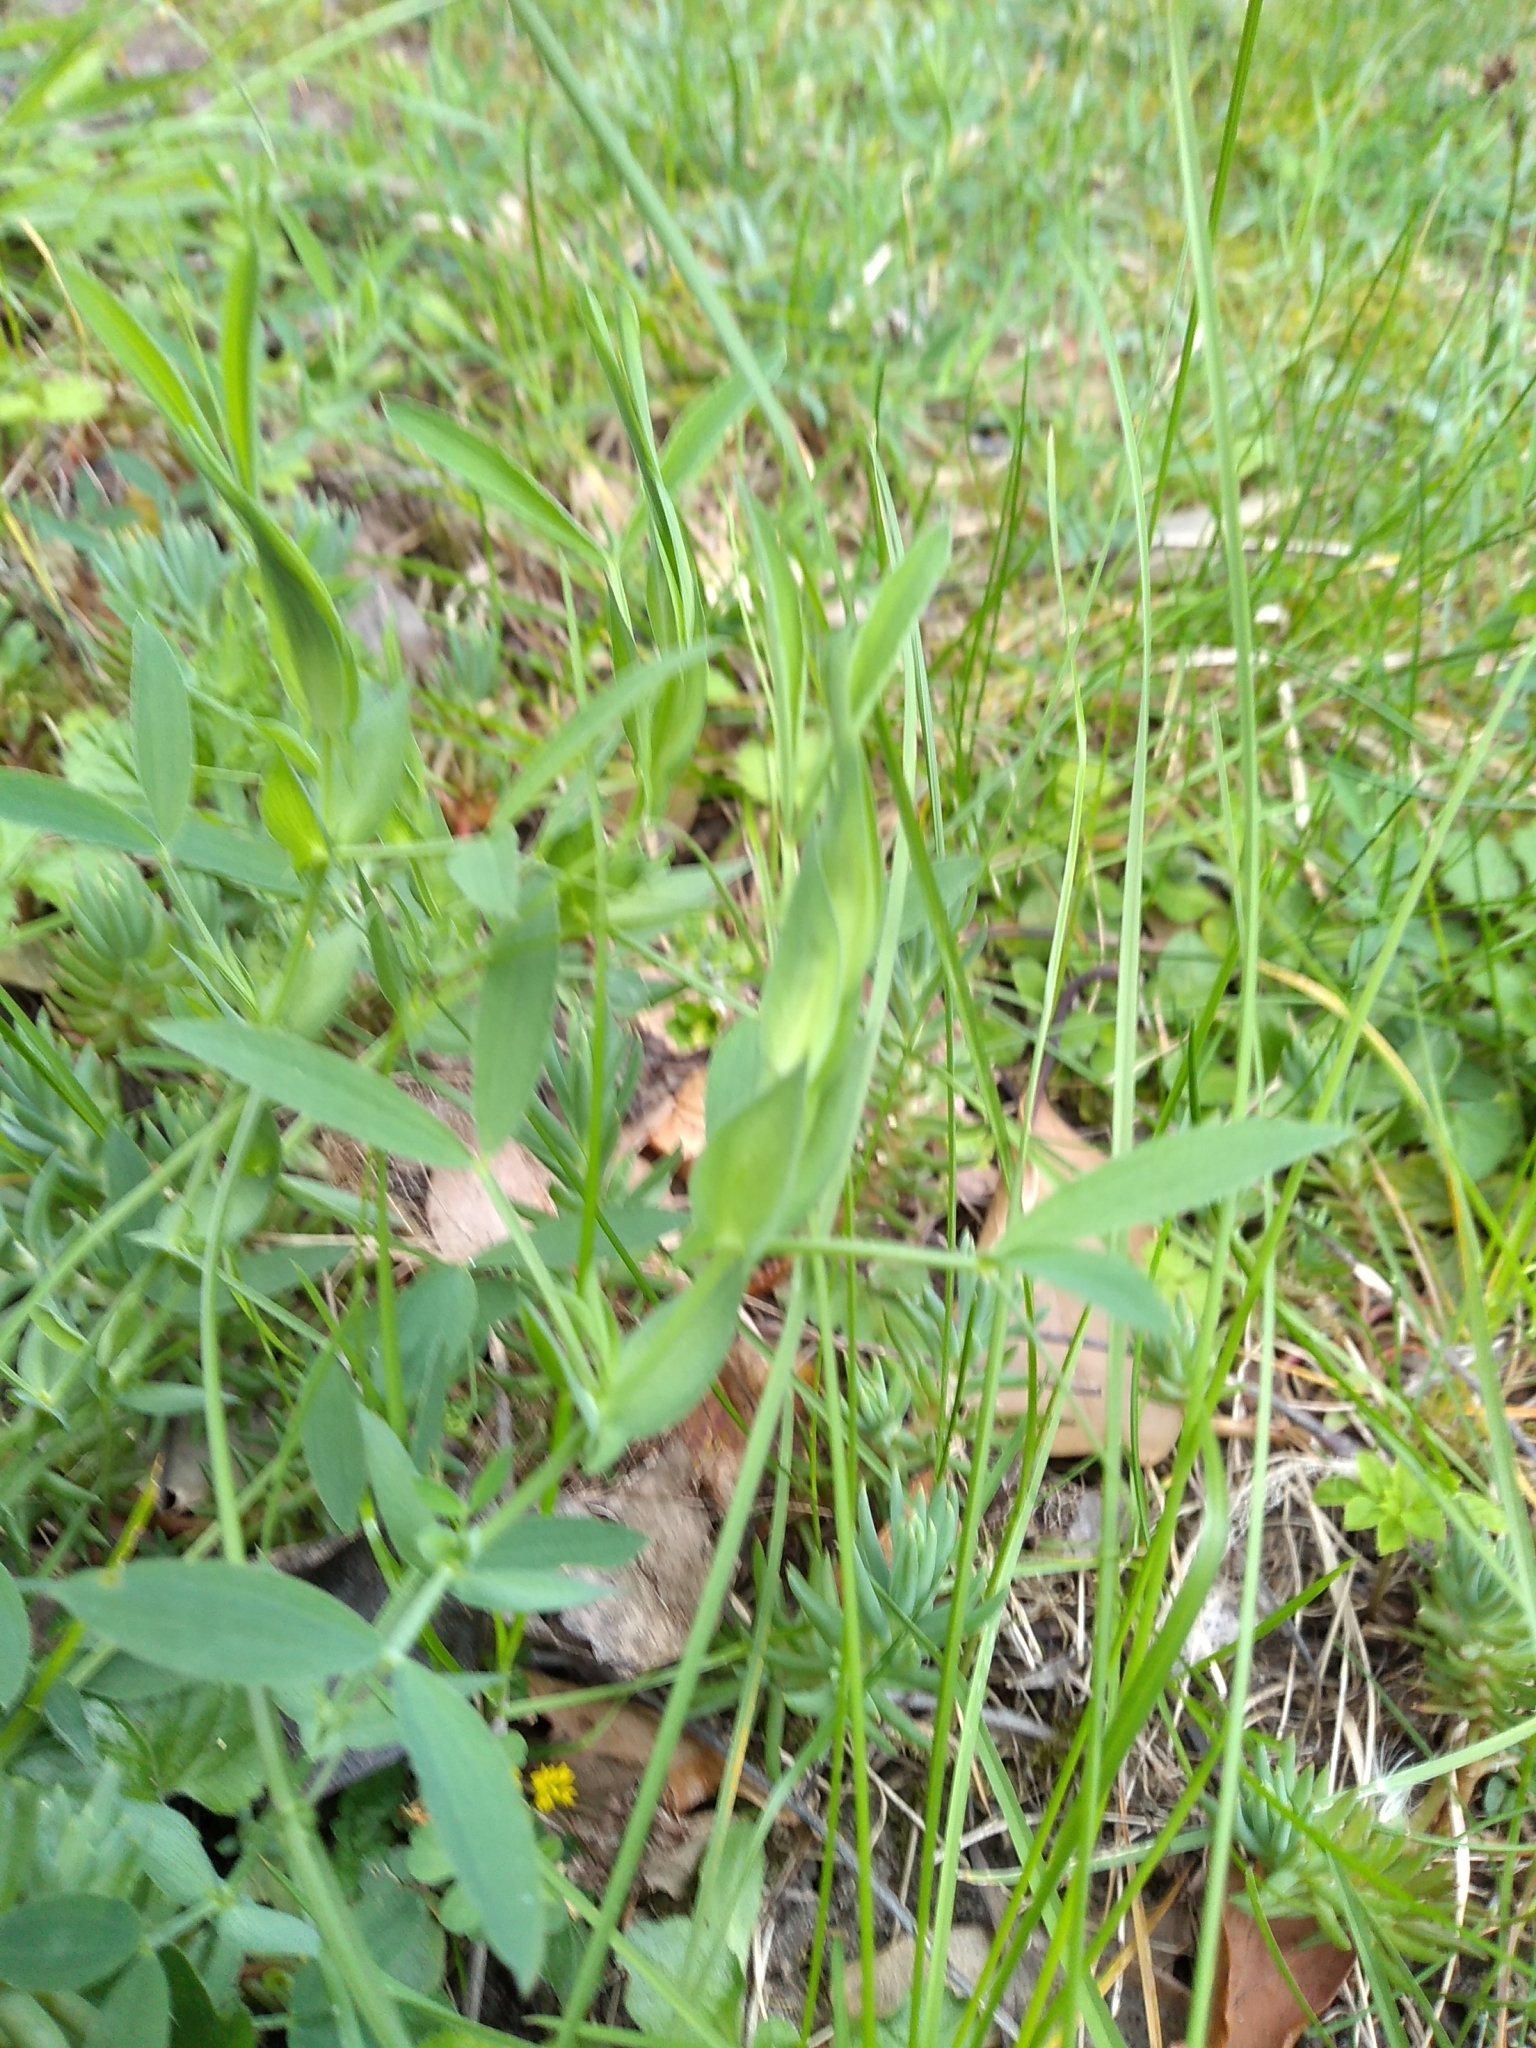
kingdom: Plantae
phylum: Tracheophyta
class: Magnoliopsida
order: Fabales
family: Fabaceae
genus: Lathyrus
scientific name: Lathyrus pratensis
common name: Meadow vetchling
